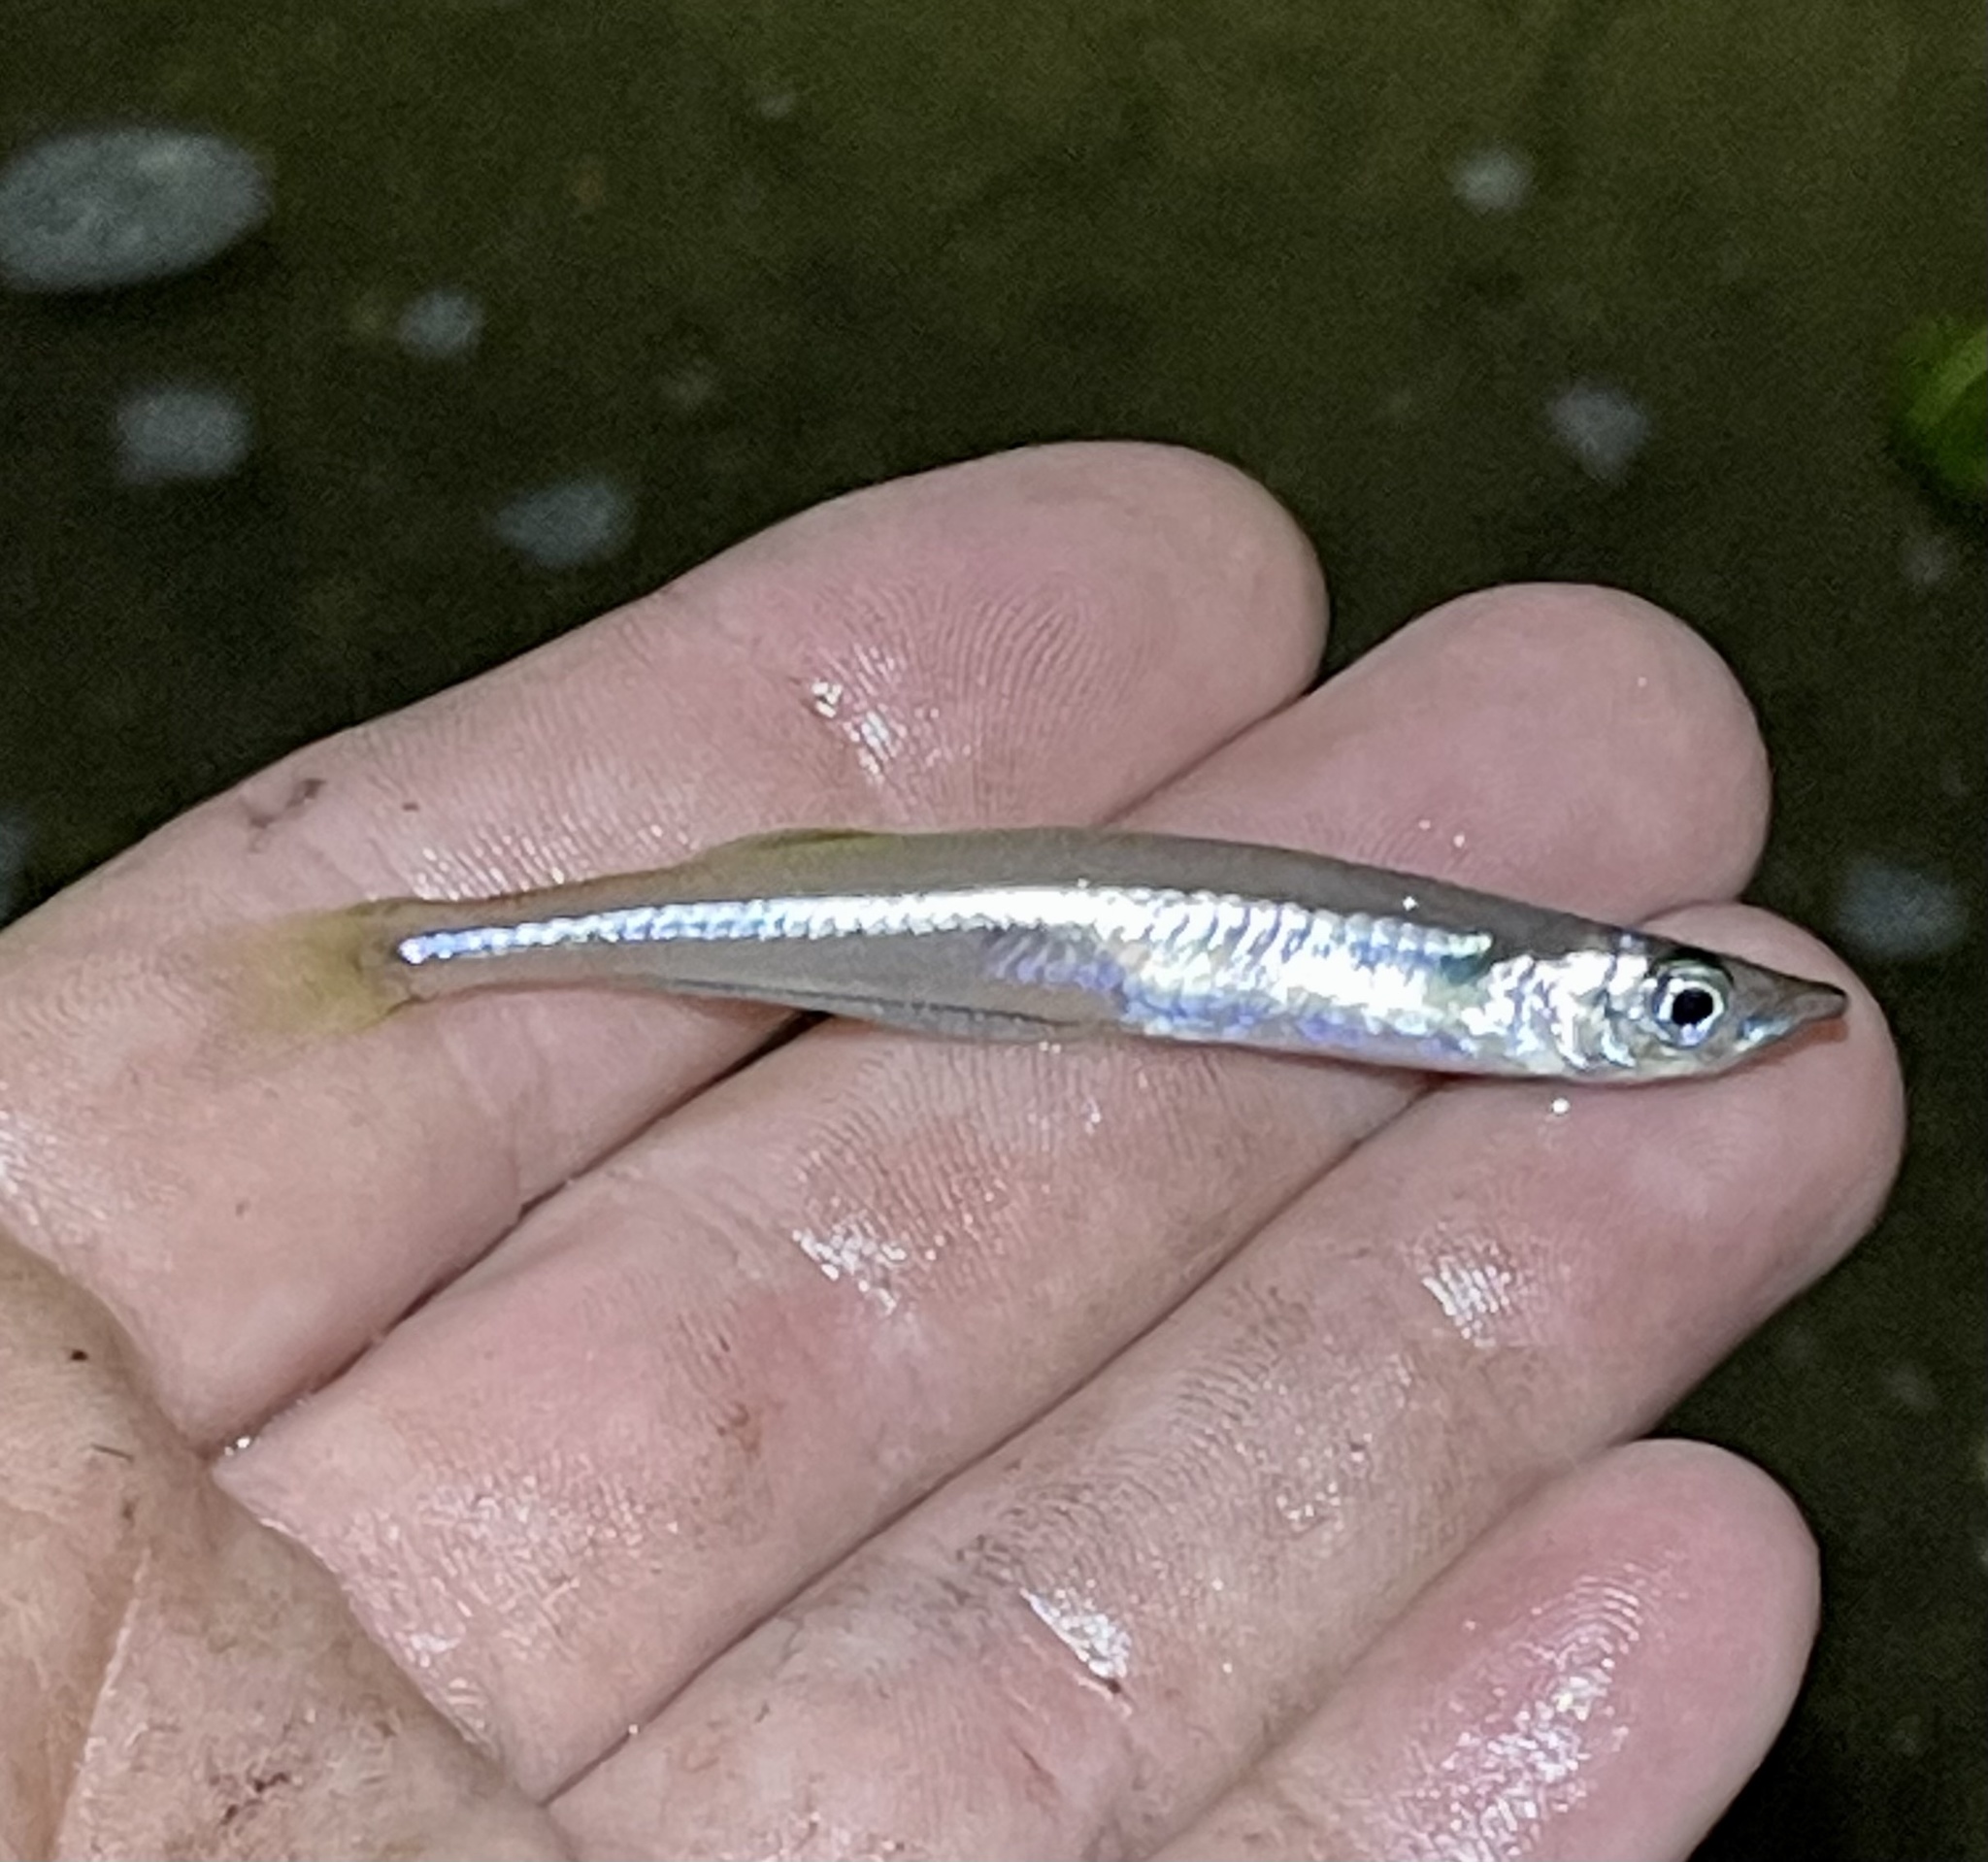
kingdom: Animalia
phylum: Chordata
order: Atheriniformes
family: Atherinopsidae
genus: Labidesthes
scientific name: Labidesthes sicculus
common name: Brook silverside
